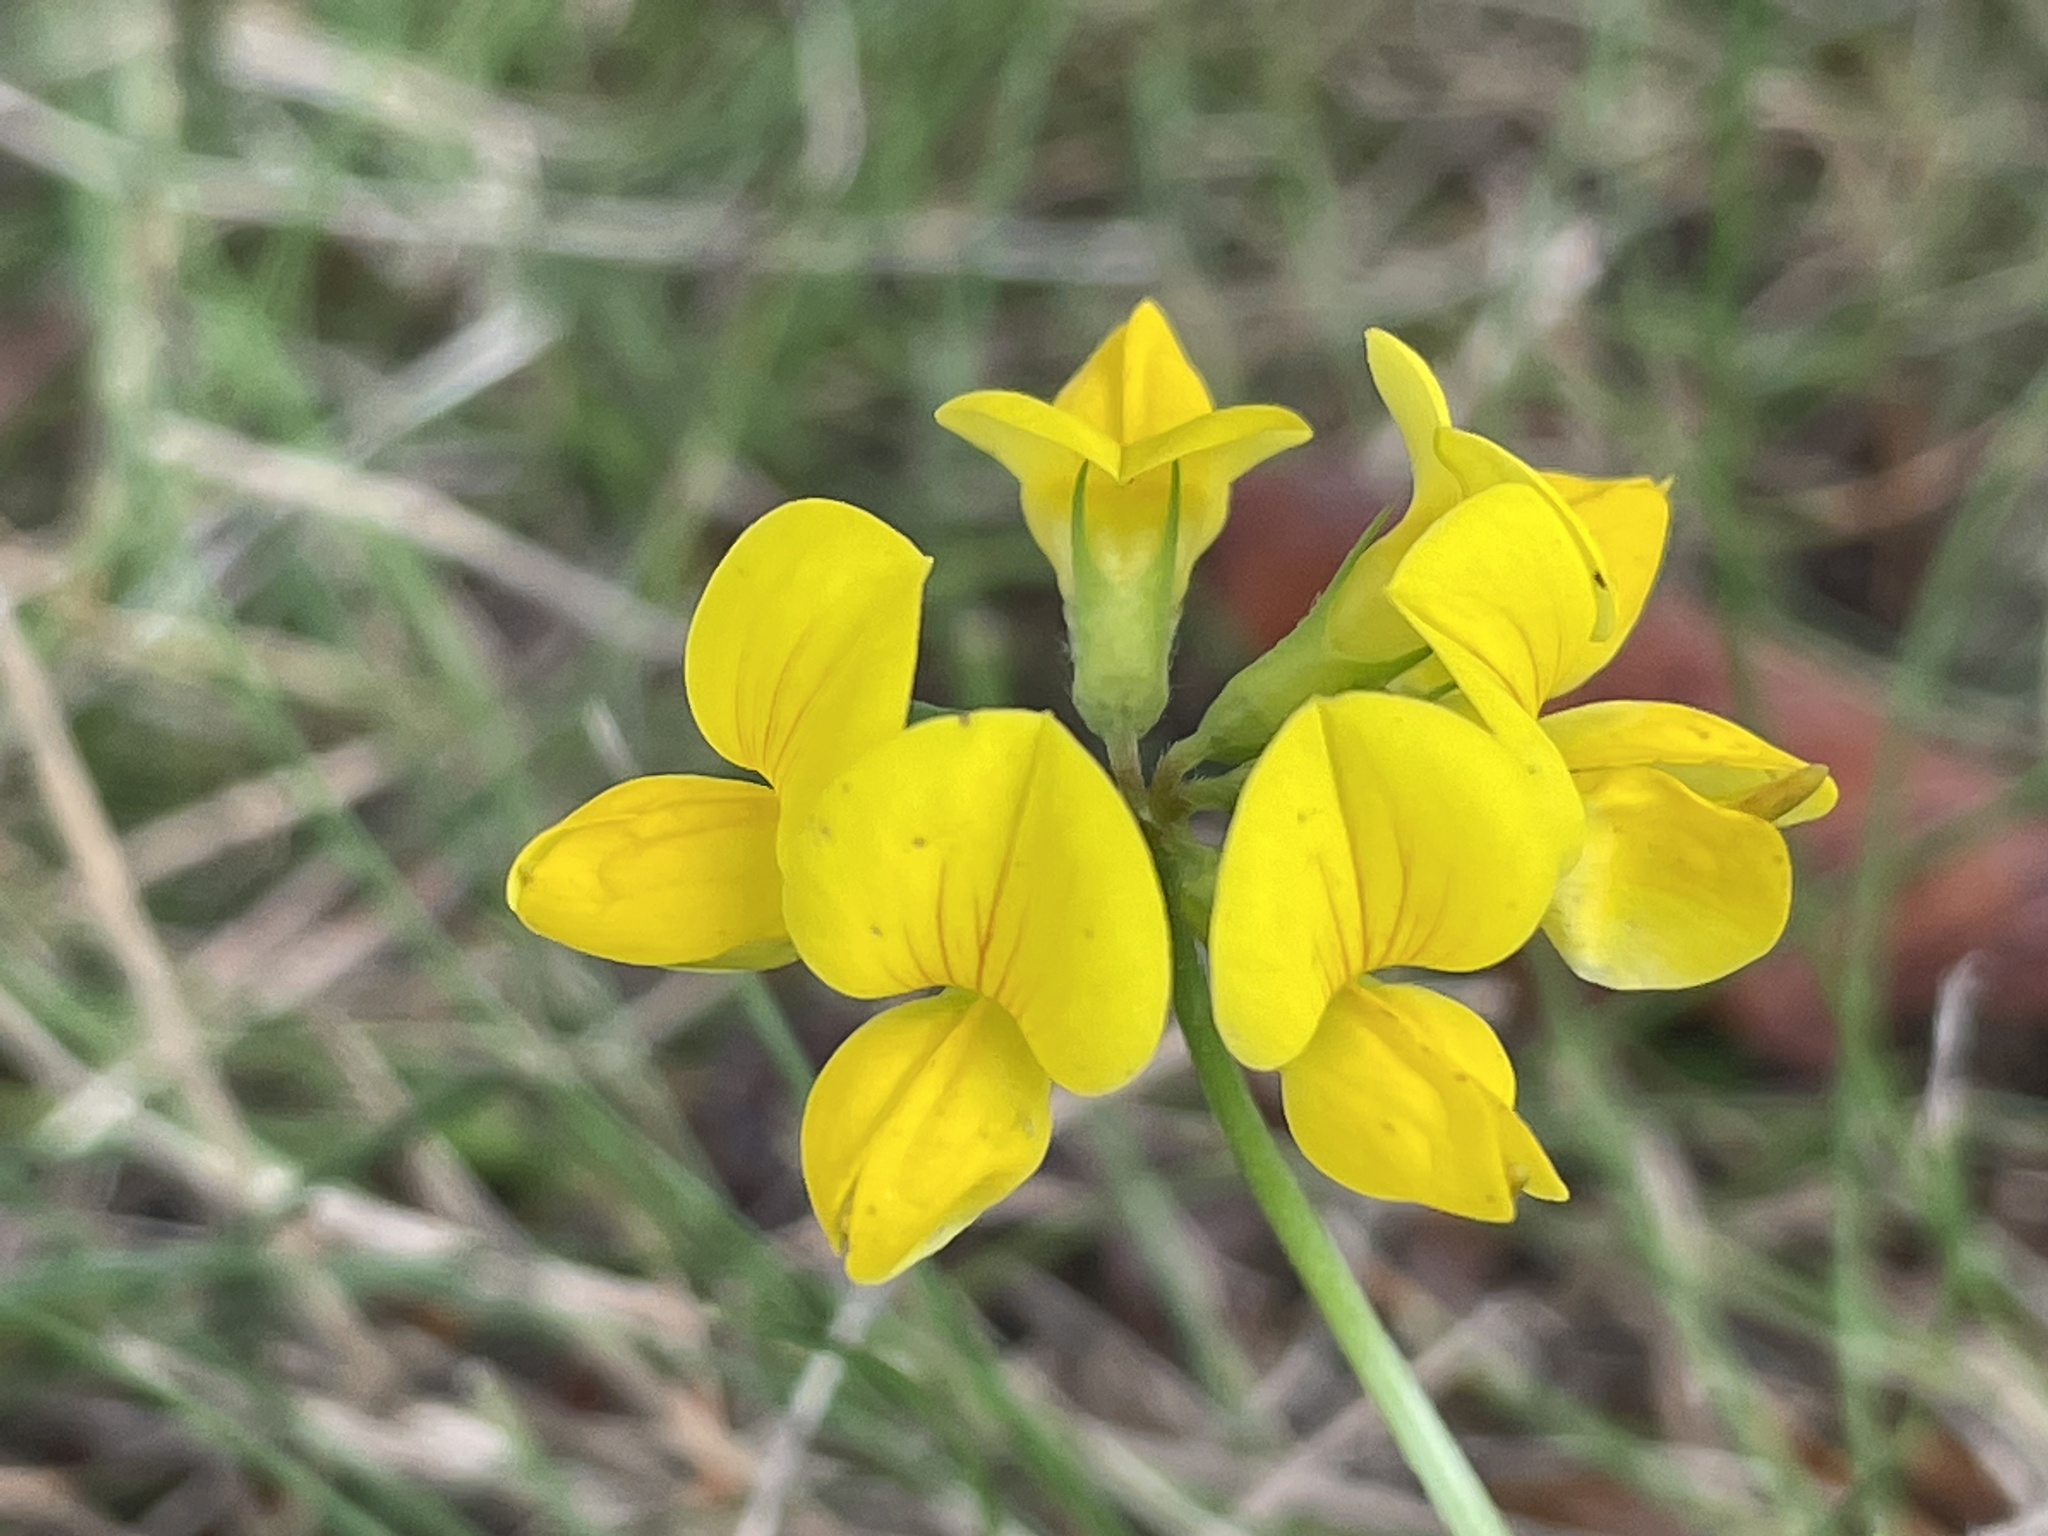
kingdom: Plantae
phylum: Tracheophyta
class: Magnoliopsida
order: Fabales
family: Fabaceae
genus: Lotus
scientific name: Lotus corniculatus
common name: Common bird's-foot-trefoil
